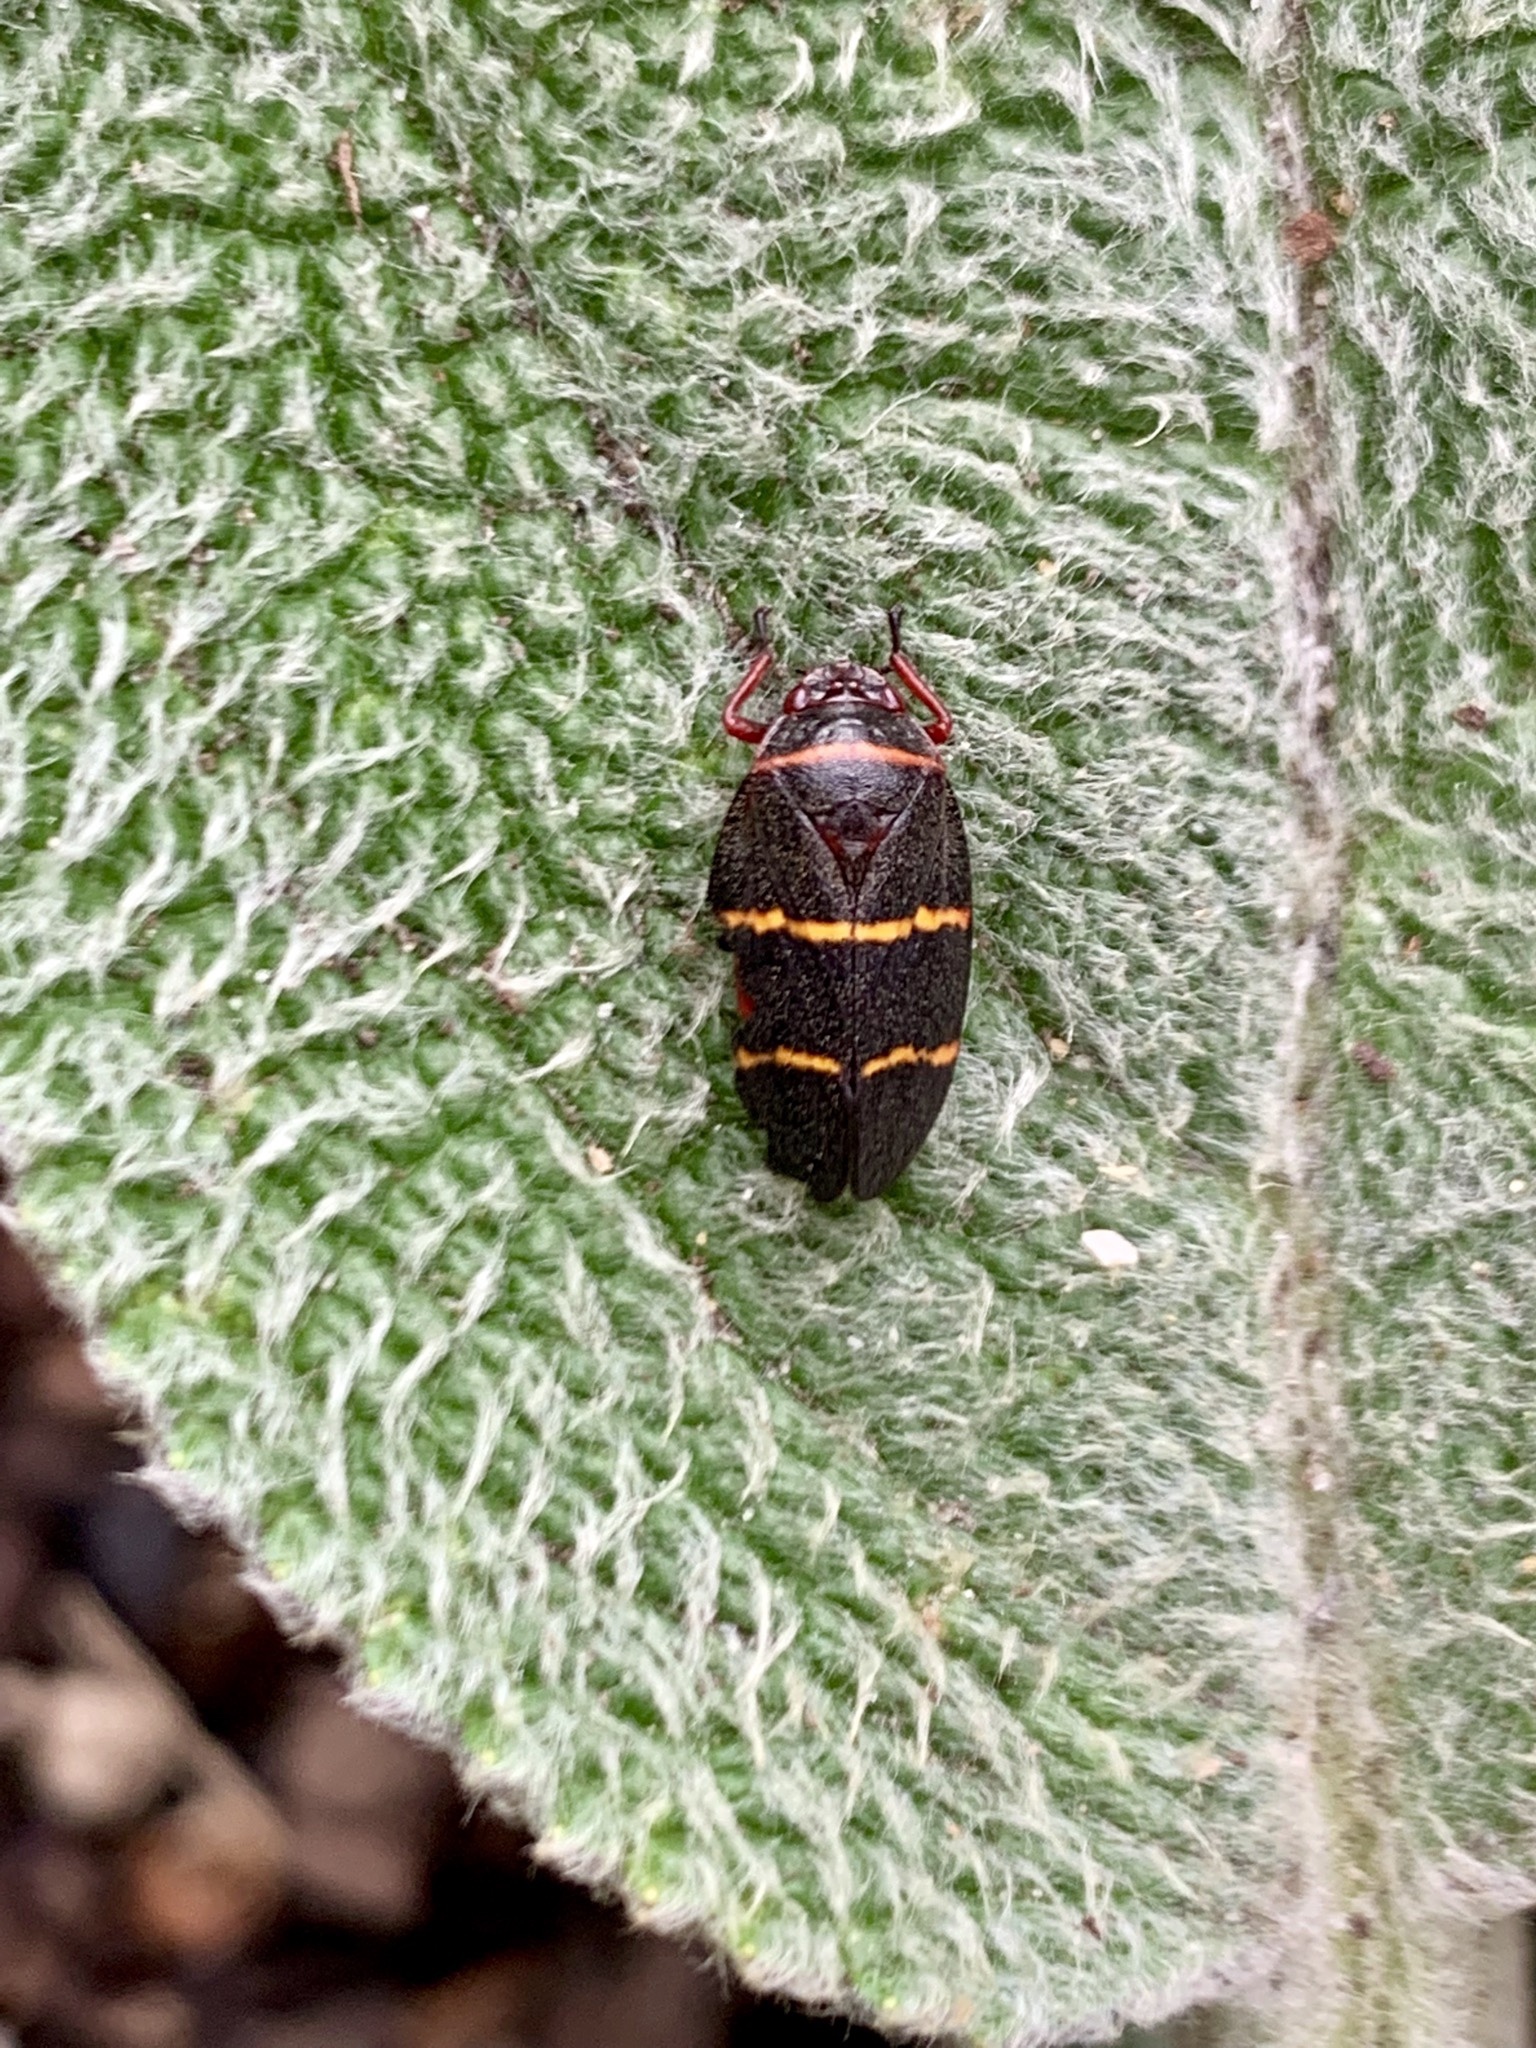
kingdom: Animalia
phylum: Arthropoda
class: Insecta
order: Hemiptera
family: Cercopidae
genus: Prosapia
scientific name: Prosapia bicincta
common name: Twolined spittlebug
